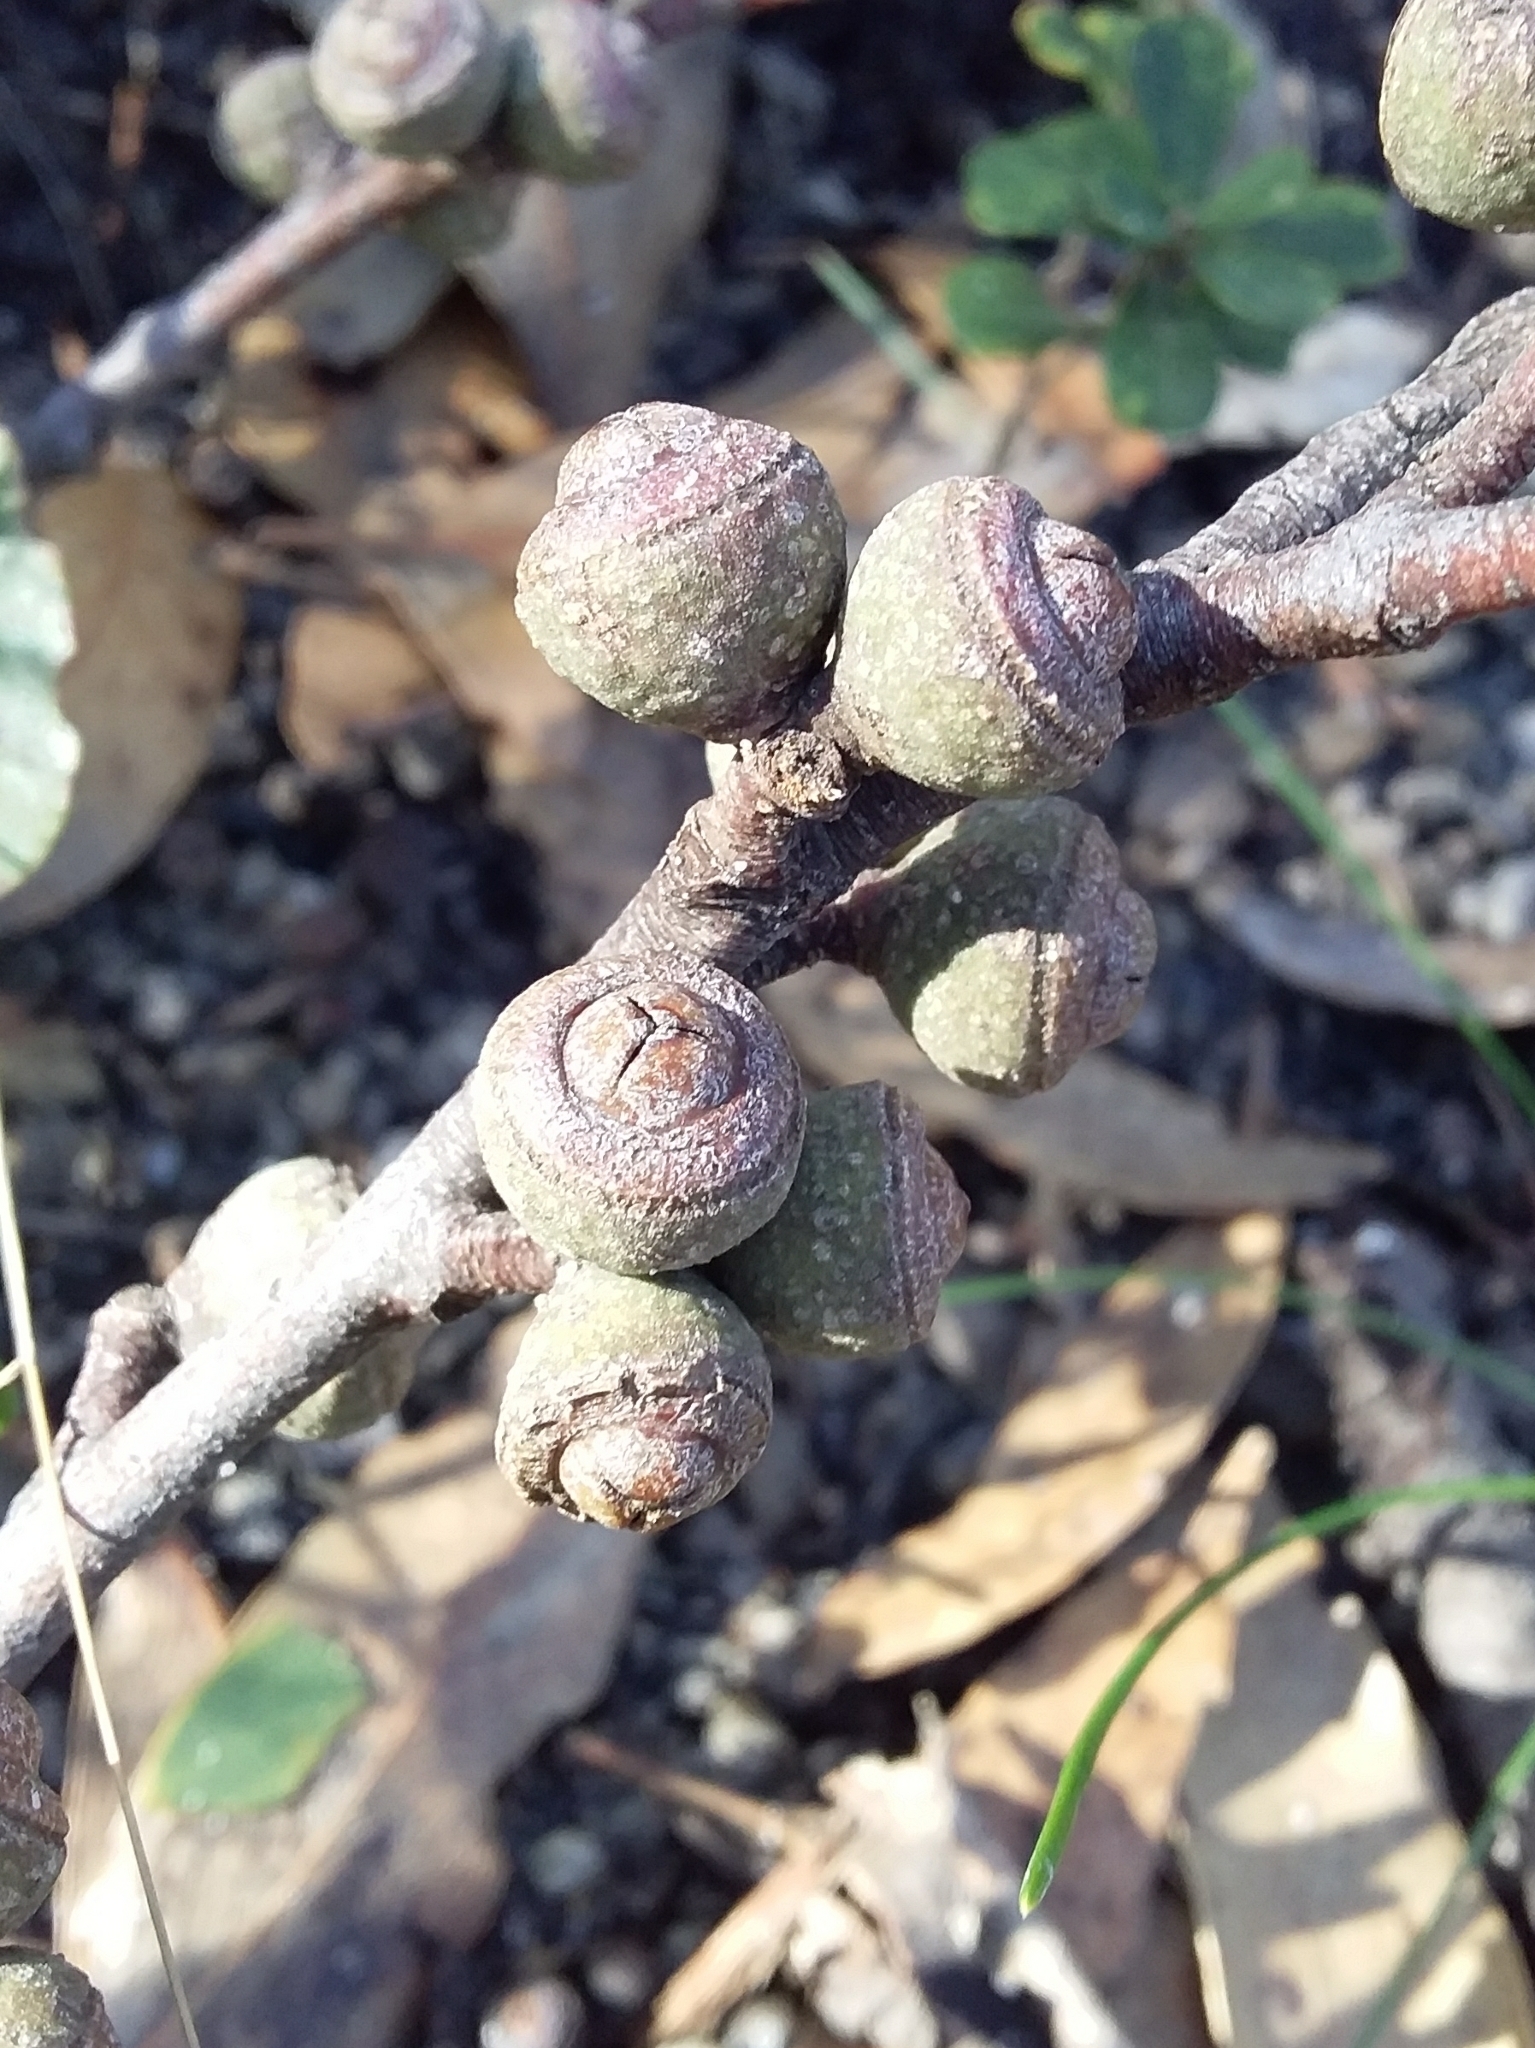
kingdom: Plantae
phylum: Tracheophyta
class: Magnoliopsida
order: Myrtales
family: Myrtaceae
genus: Eucalyptus
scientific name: Eucalyptus baxteri
